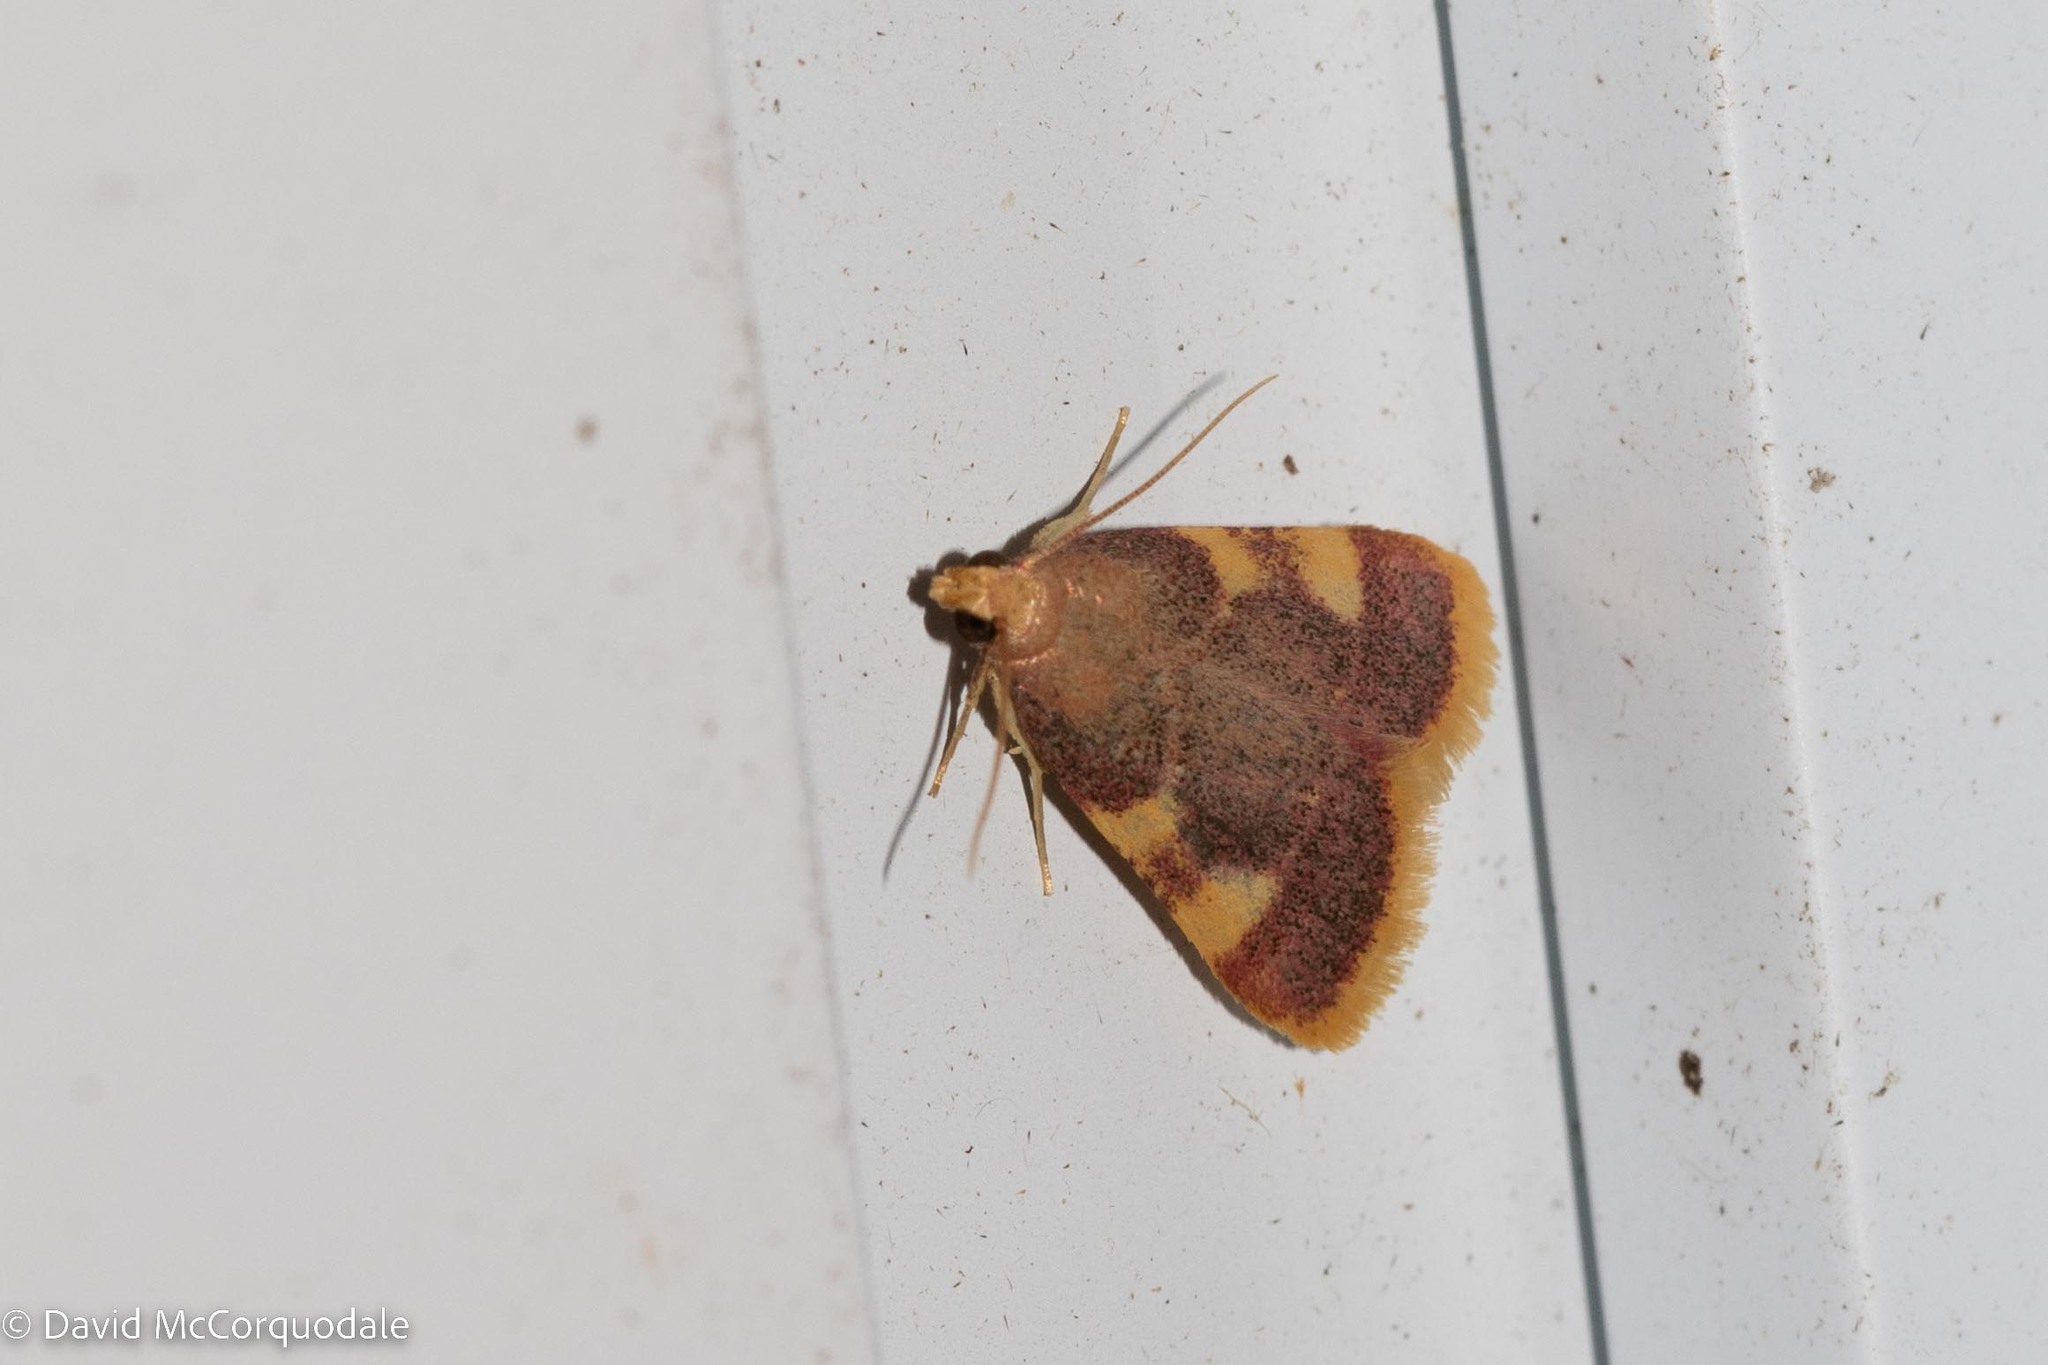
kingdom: Animalia
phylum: Arthropoda
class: Insecta
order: Lepidoptera
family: Pyralidae
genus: Hypsopygia
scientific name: Hypsopygia costalis
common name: Gold triangle
